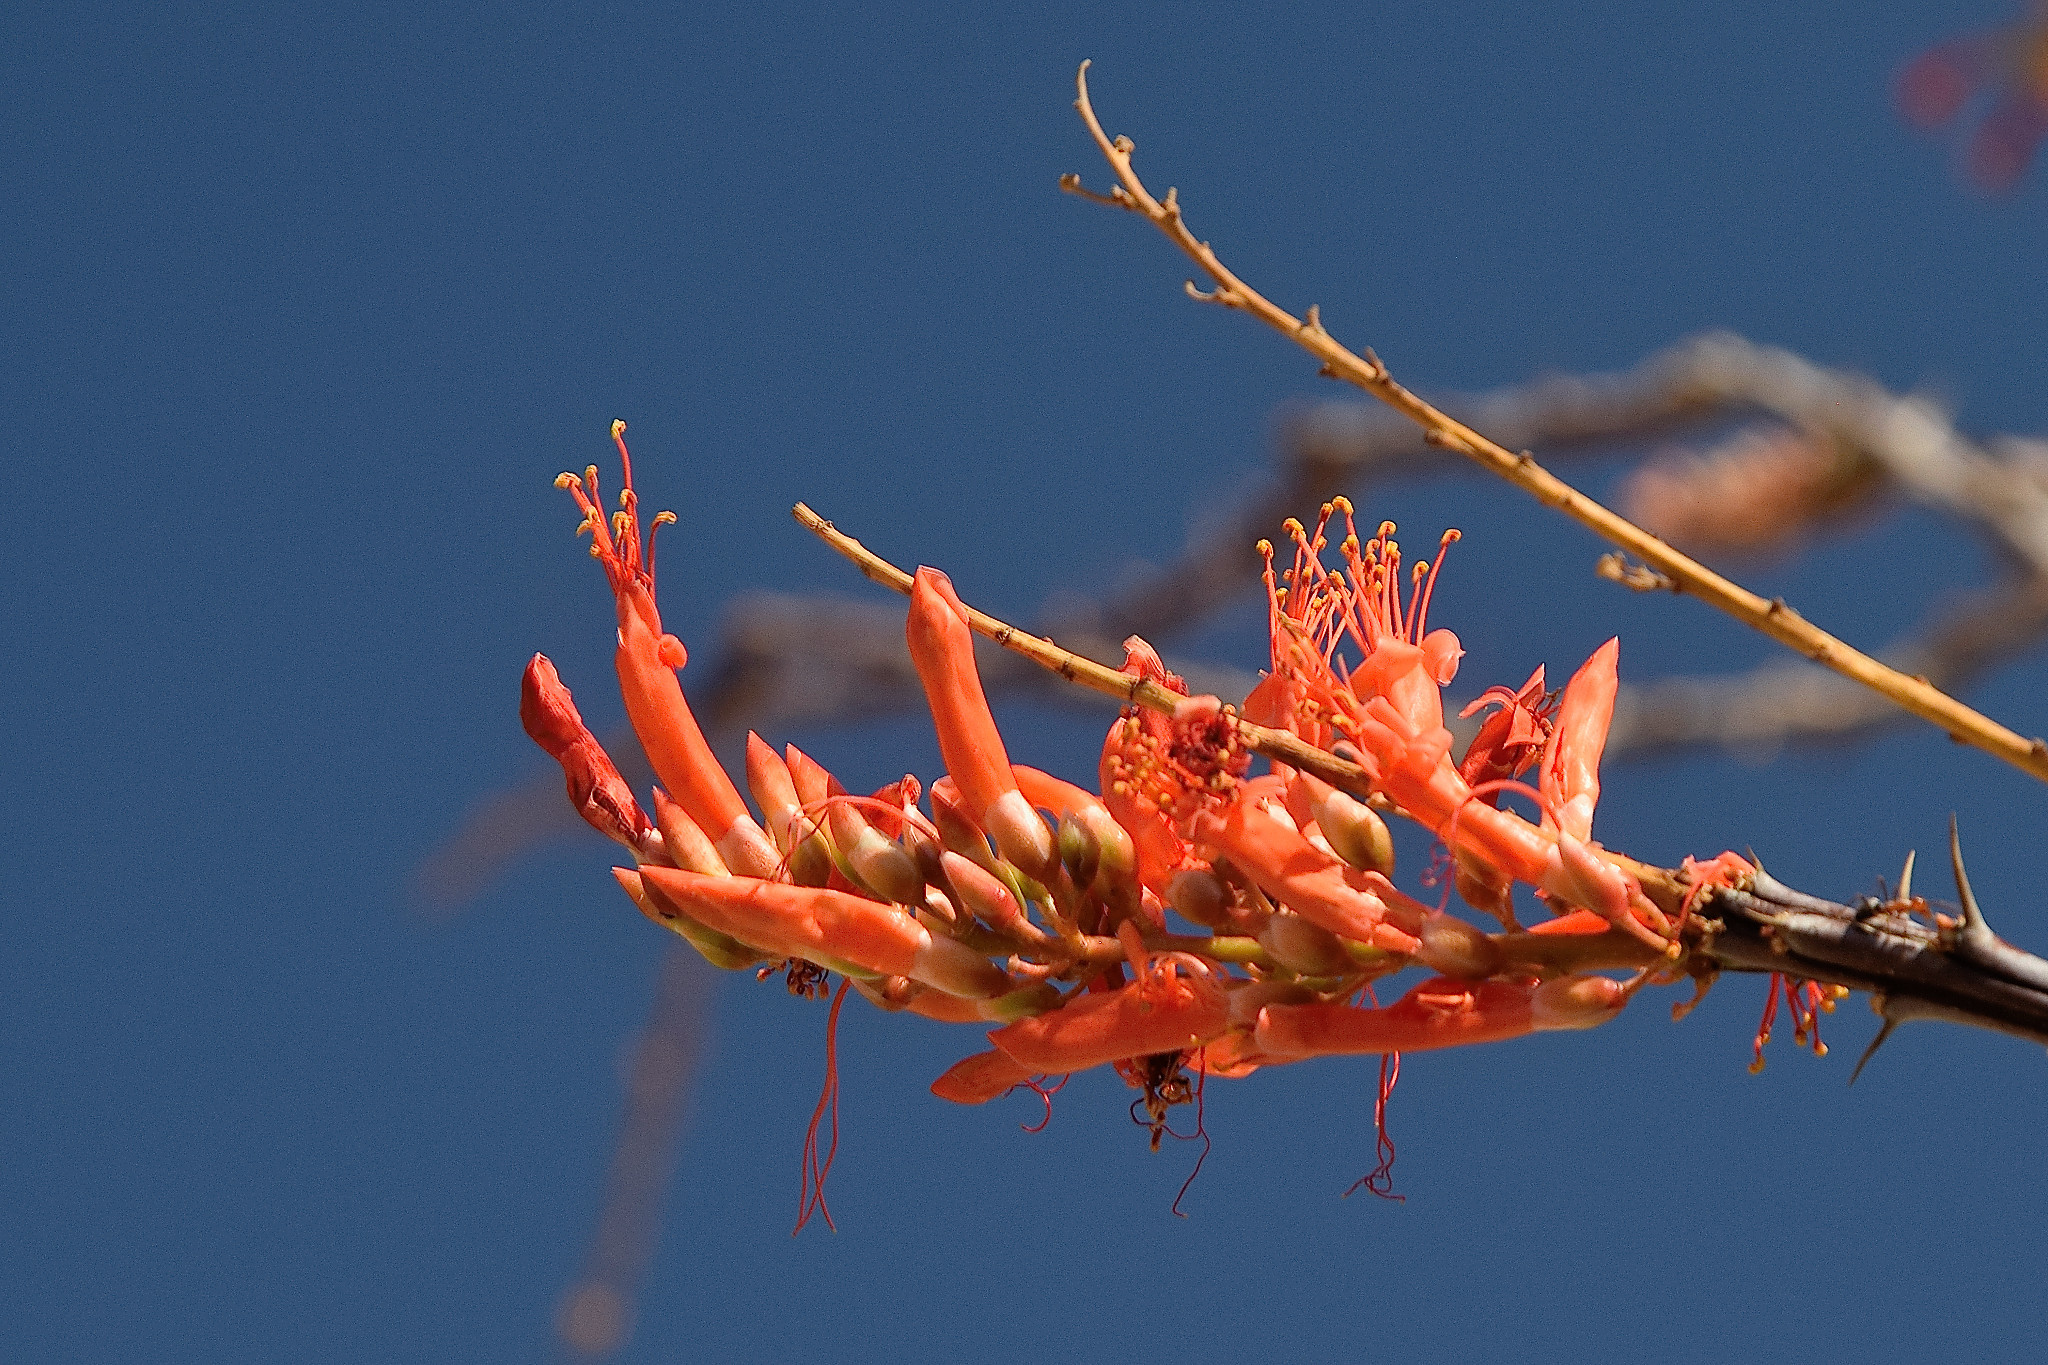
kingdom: Plantae
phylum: Tracheophyta
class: Magnoliopsida
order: Ericales
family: Fouquieriaceae
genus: Fouquieria
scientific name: Fouquieria splendens
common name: Vine-cactus
